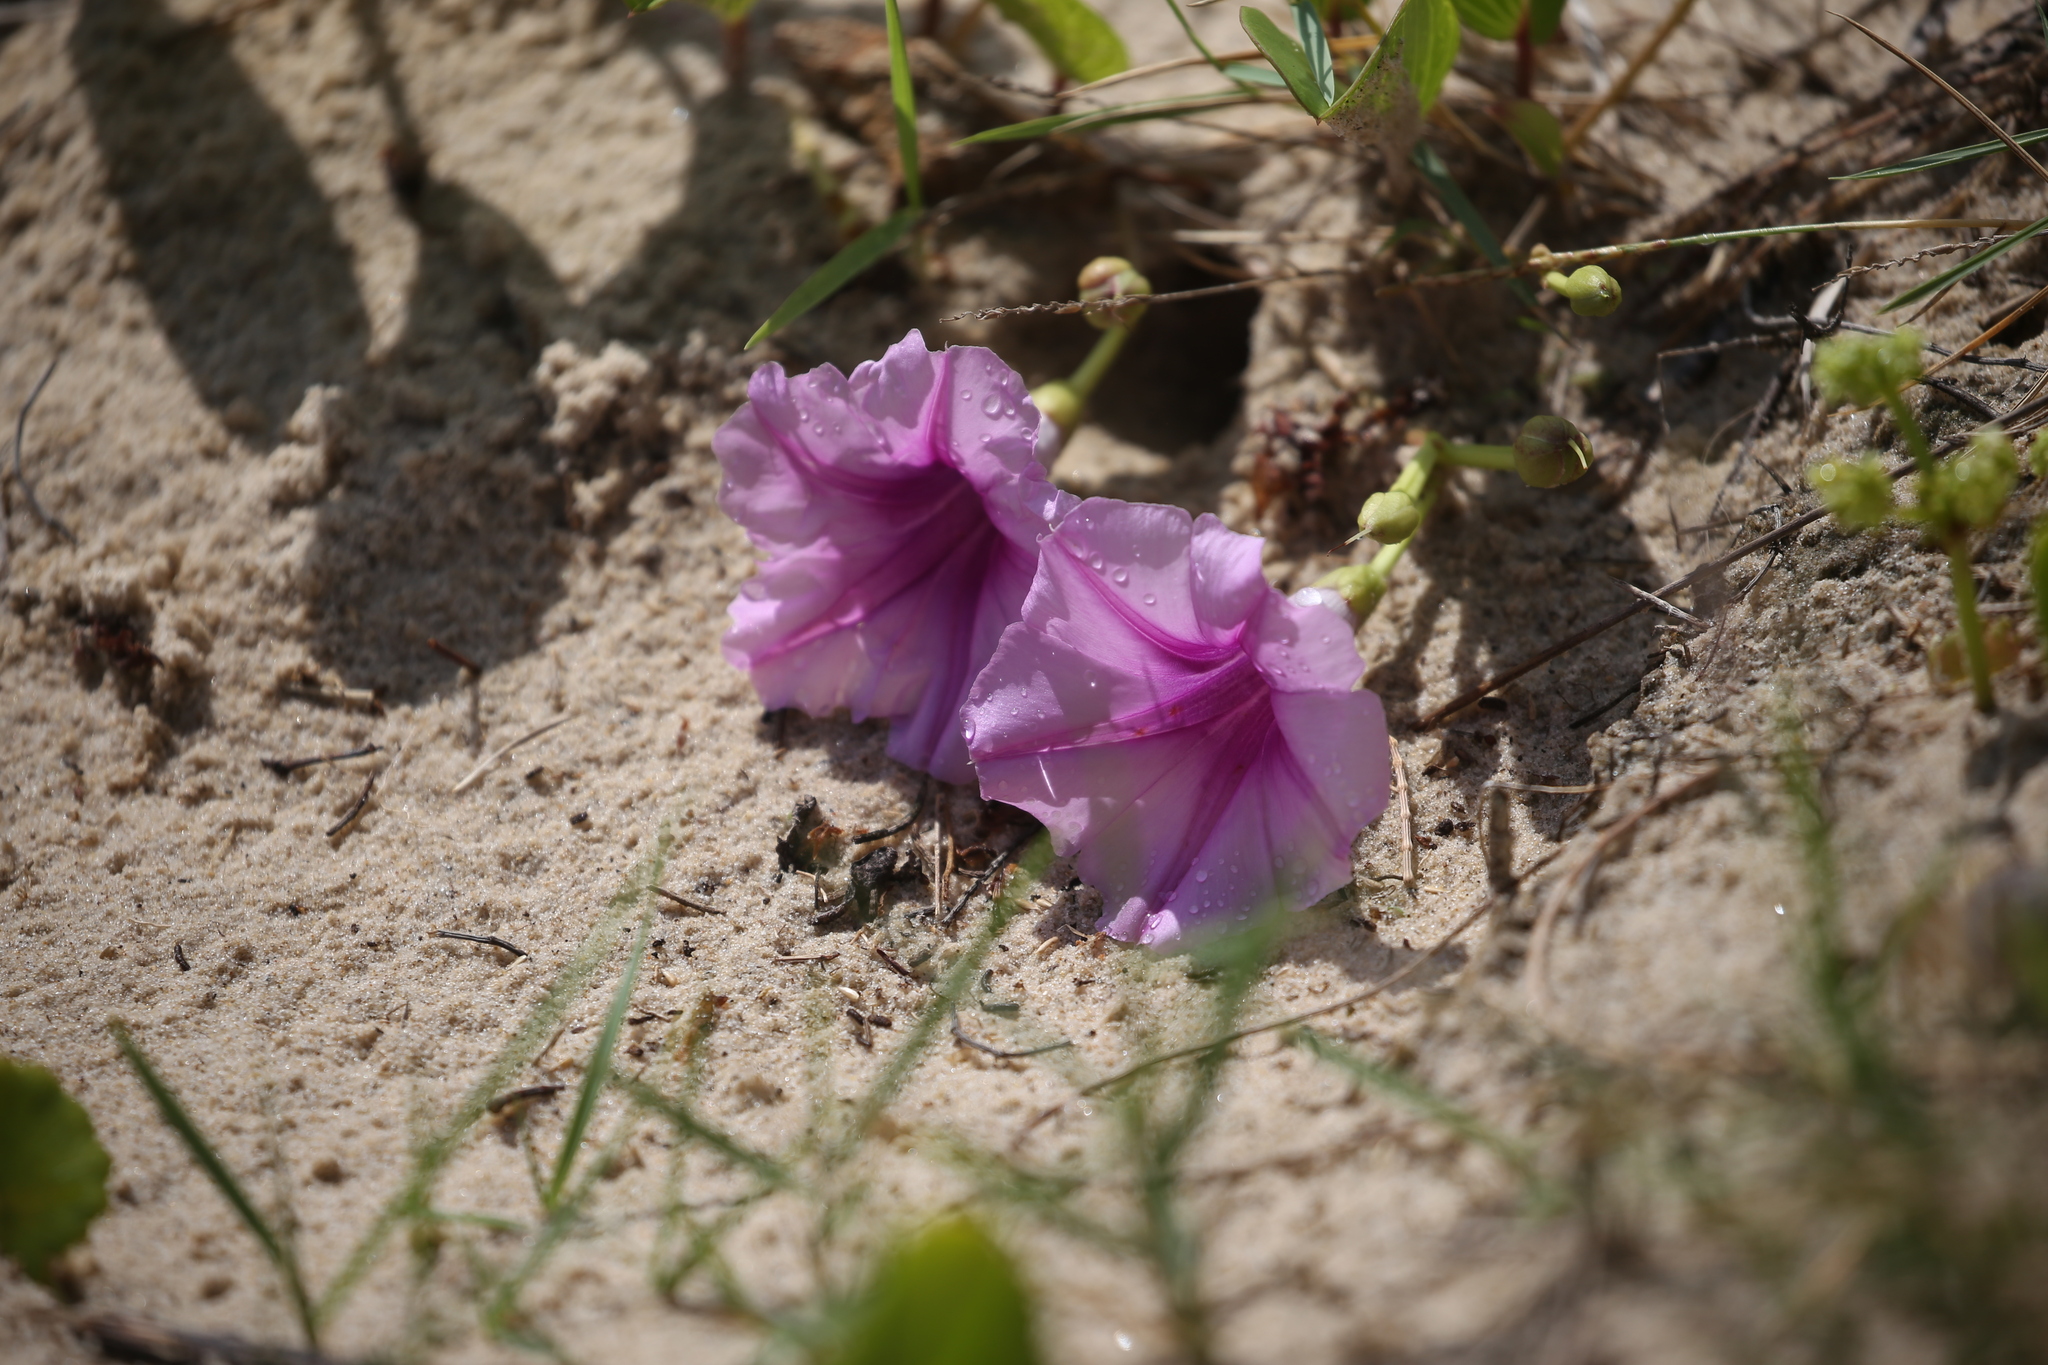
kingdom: Plantae
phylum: Tracheophyta
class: Magnoliopsida
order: Solanales
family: Convolvulaceae
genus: Ipomoea
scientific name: Ipomoea pes-caprae
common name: Beach morning glory
